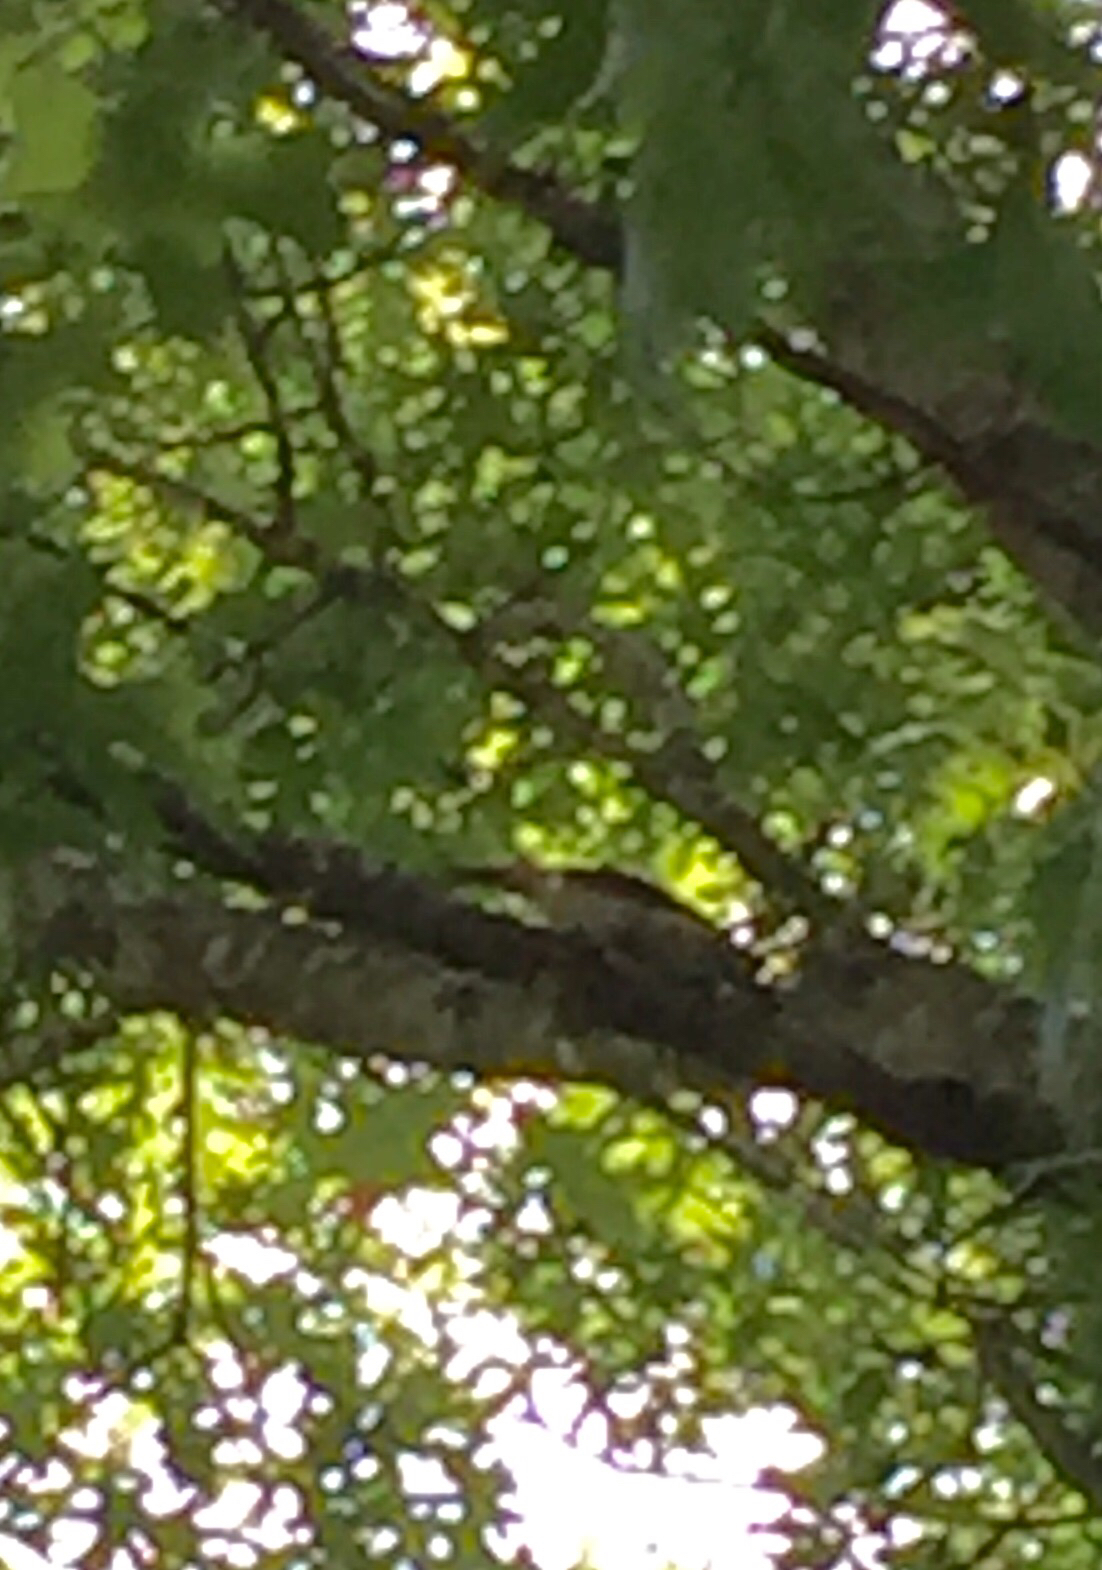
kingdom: Animalia
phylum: Chordata
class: Aves
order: Piciformes
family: Picidae
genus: Melanerpes
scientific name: Melanerpes carolinus
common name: Red-bellied woodpecker
